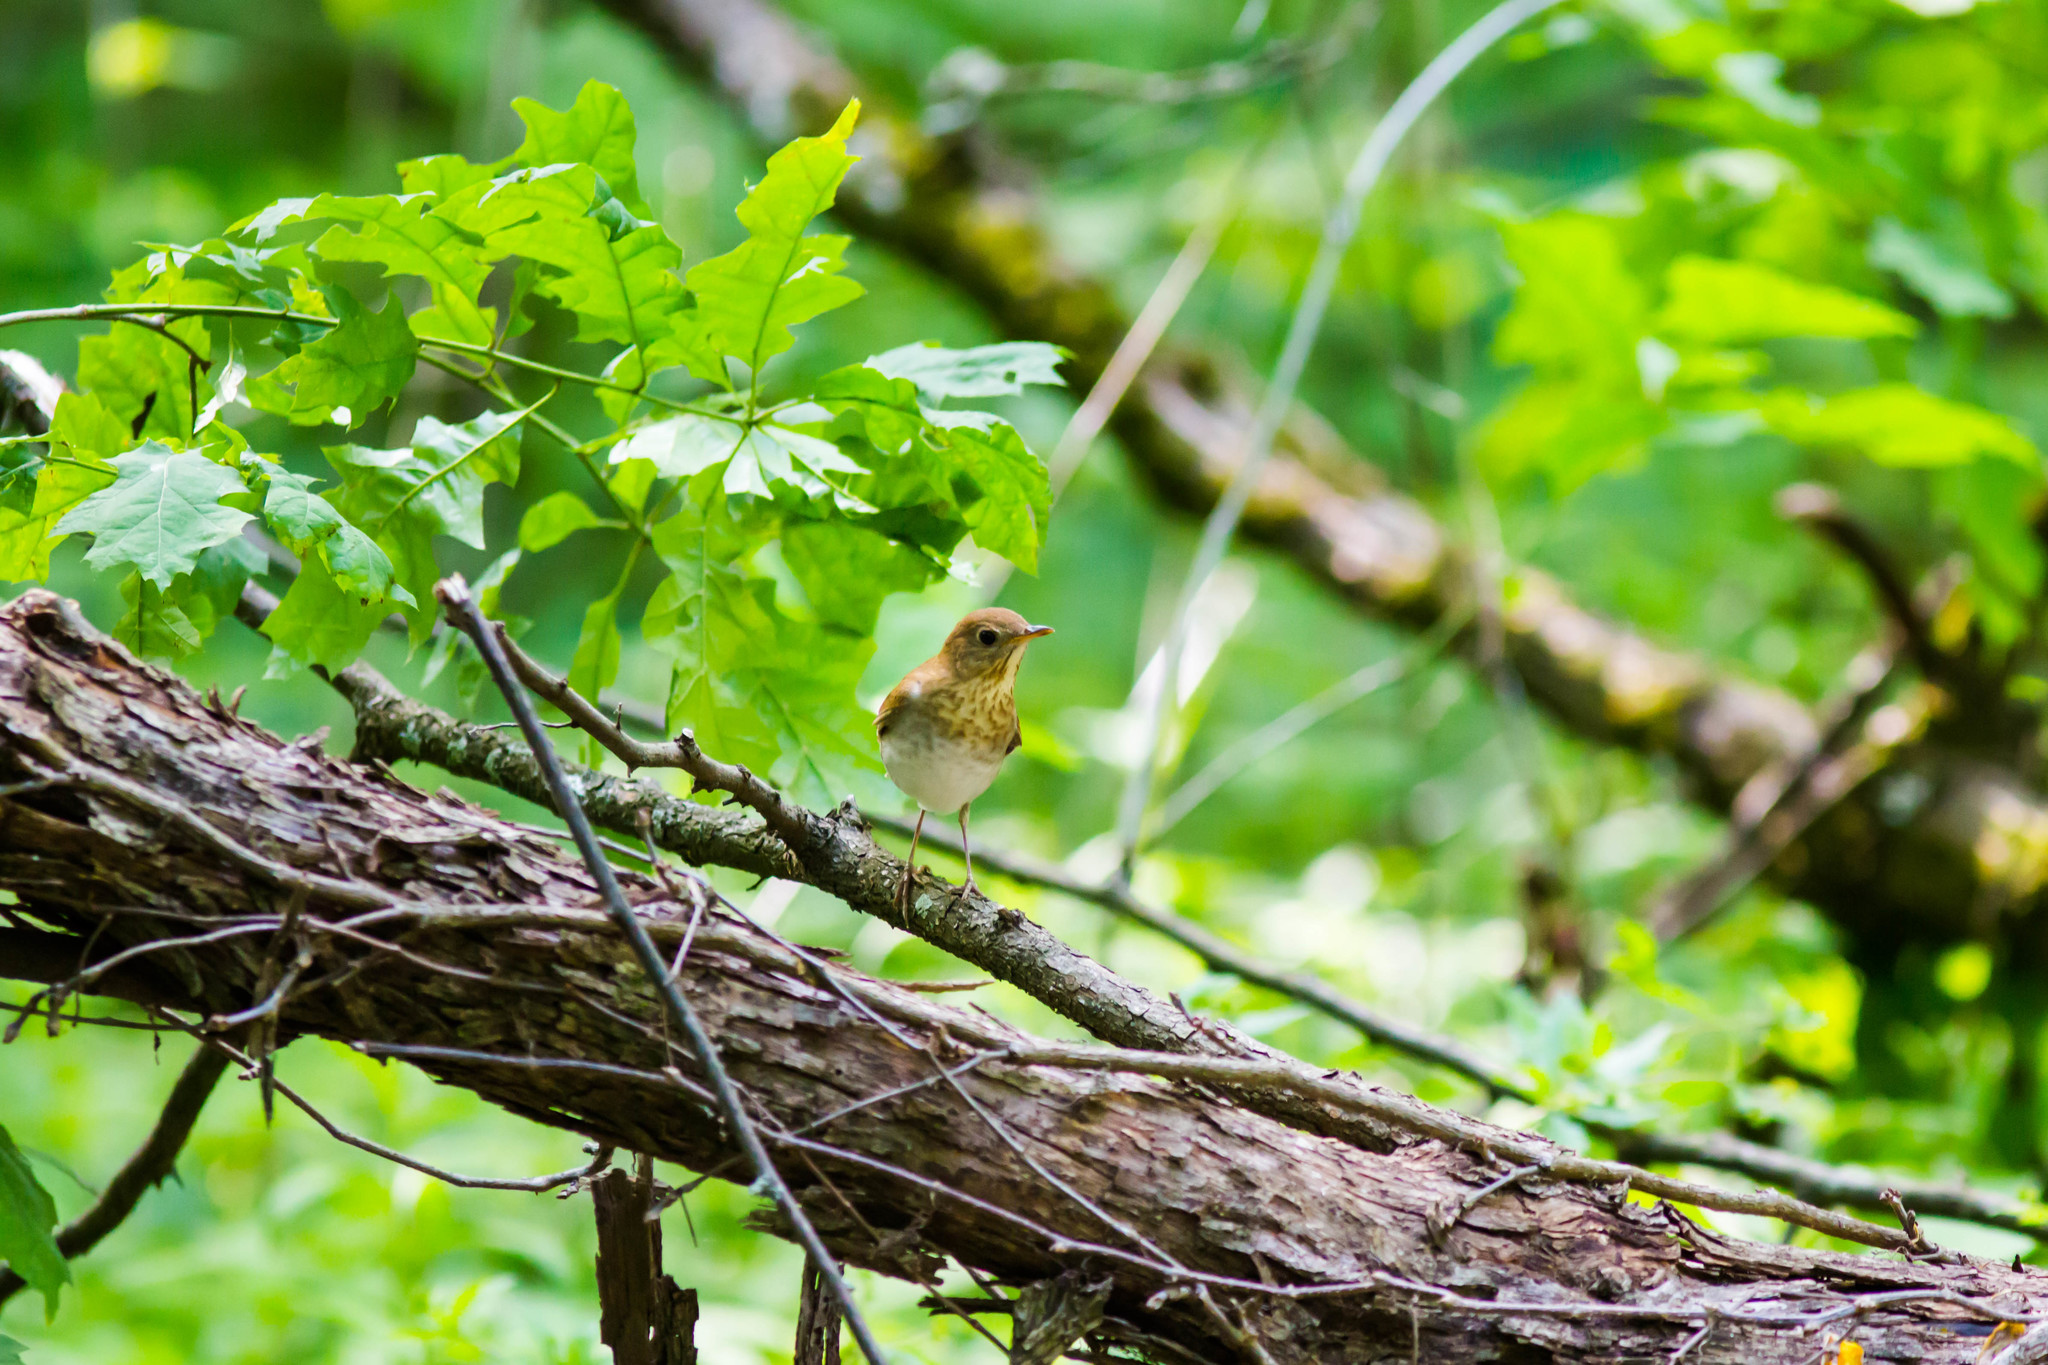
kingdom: Animalia
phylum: Chordata
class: Aves
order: Passeriformes
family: Turdidae
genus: Catharus
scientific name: Catharus fuscescens
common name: Veery
